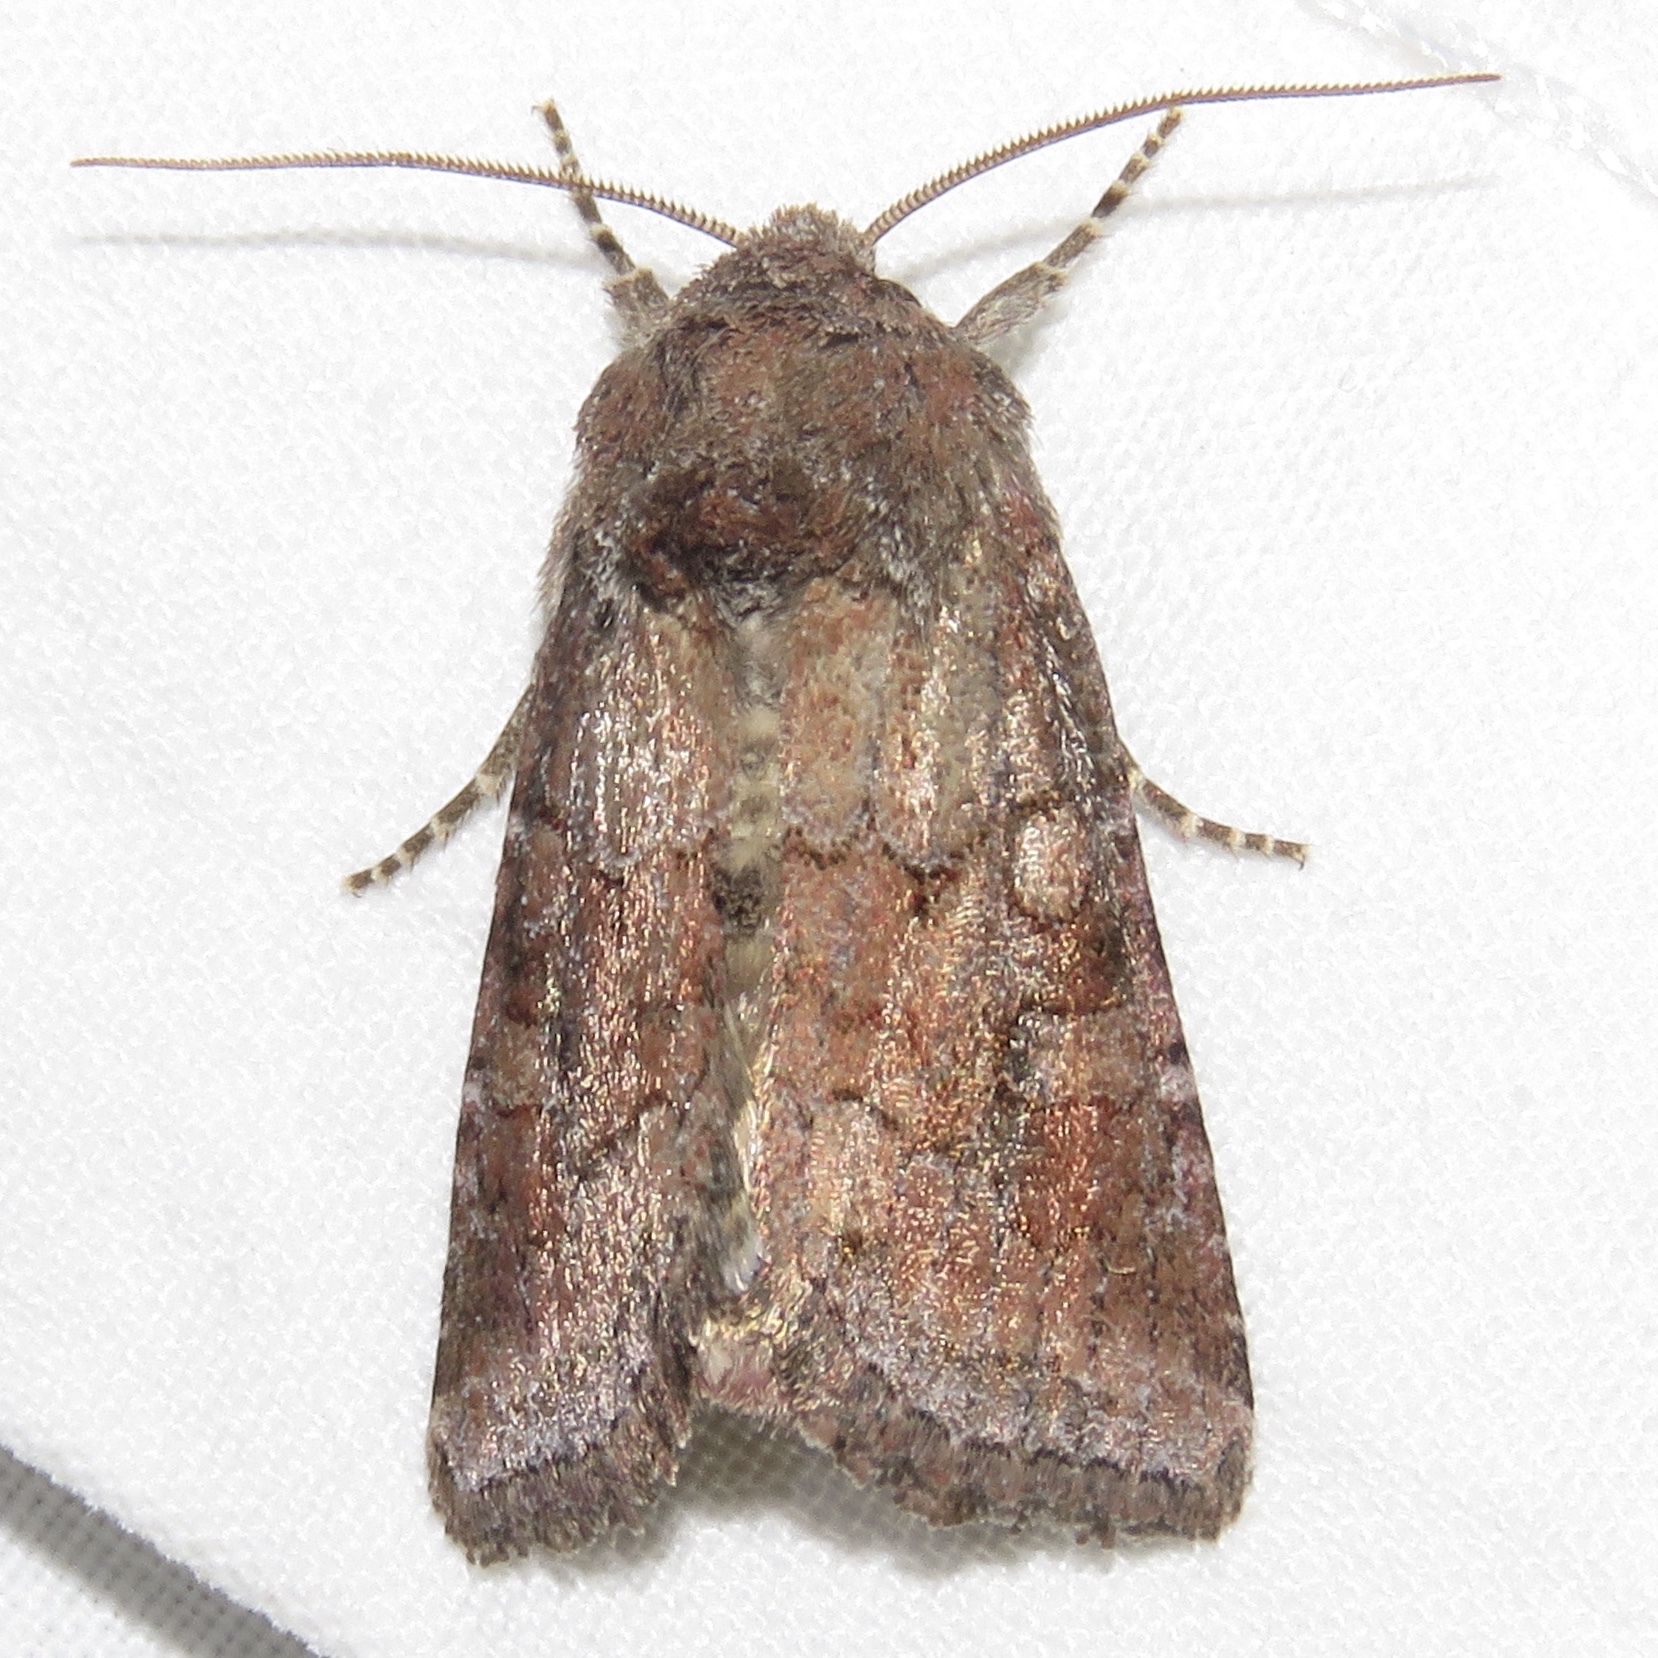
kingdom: Animalia
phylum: Arthropoda
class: Insecta
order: Lepidoptera
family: Noctuidae
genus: Lacinipolia
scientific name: Lacinipolia meditata
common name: Thinker moth
